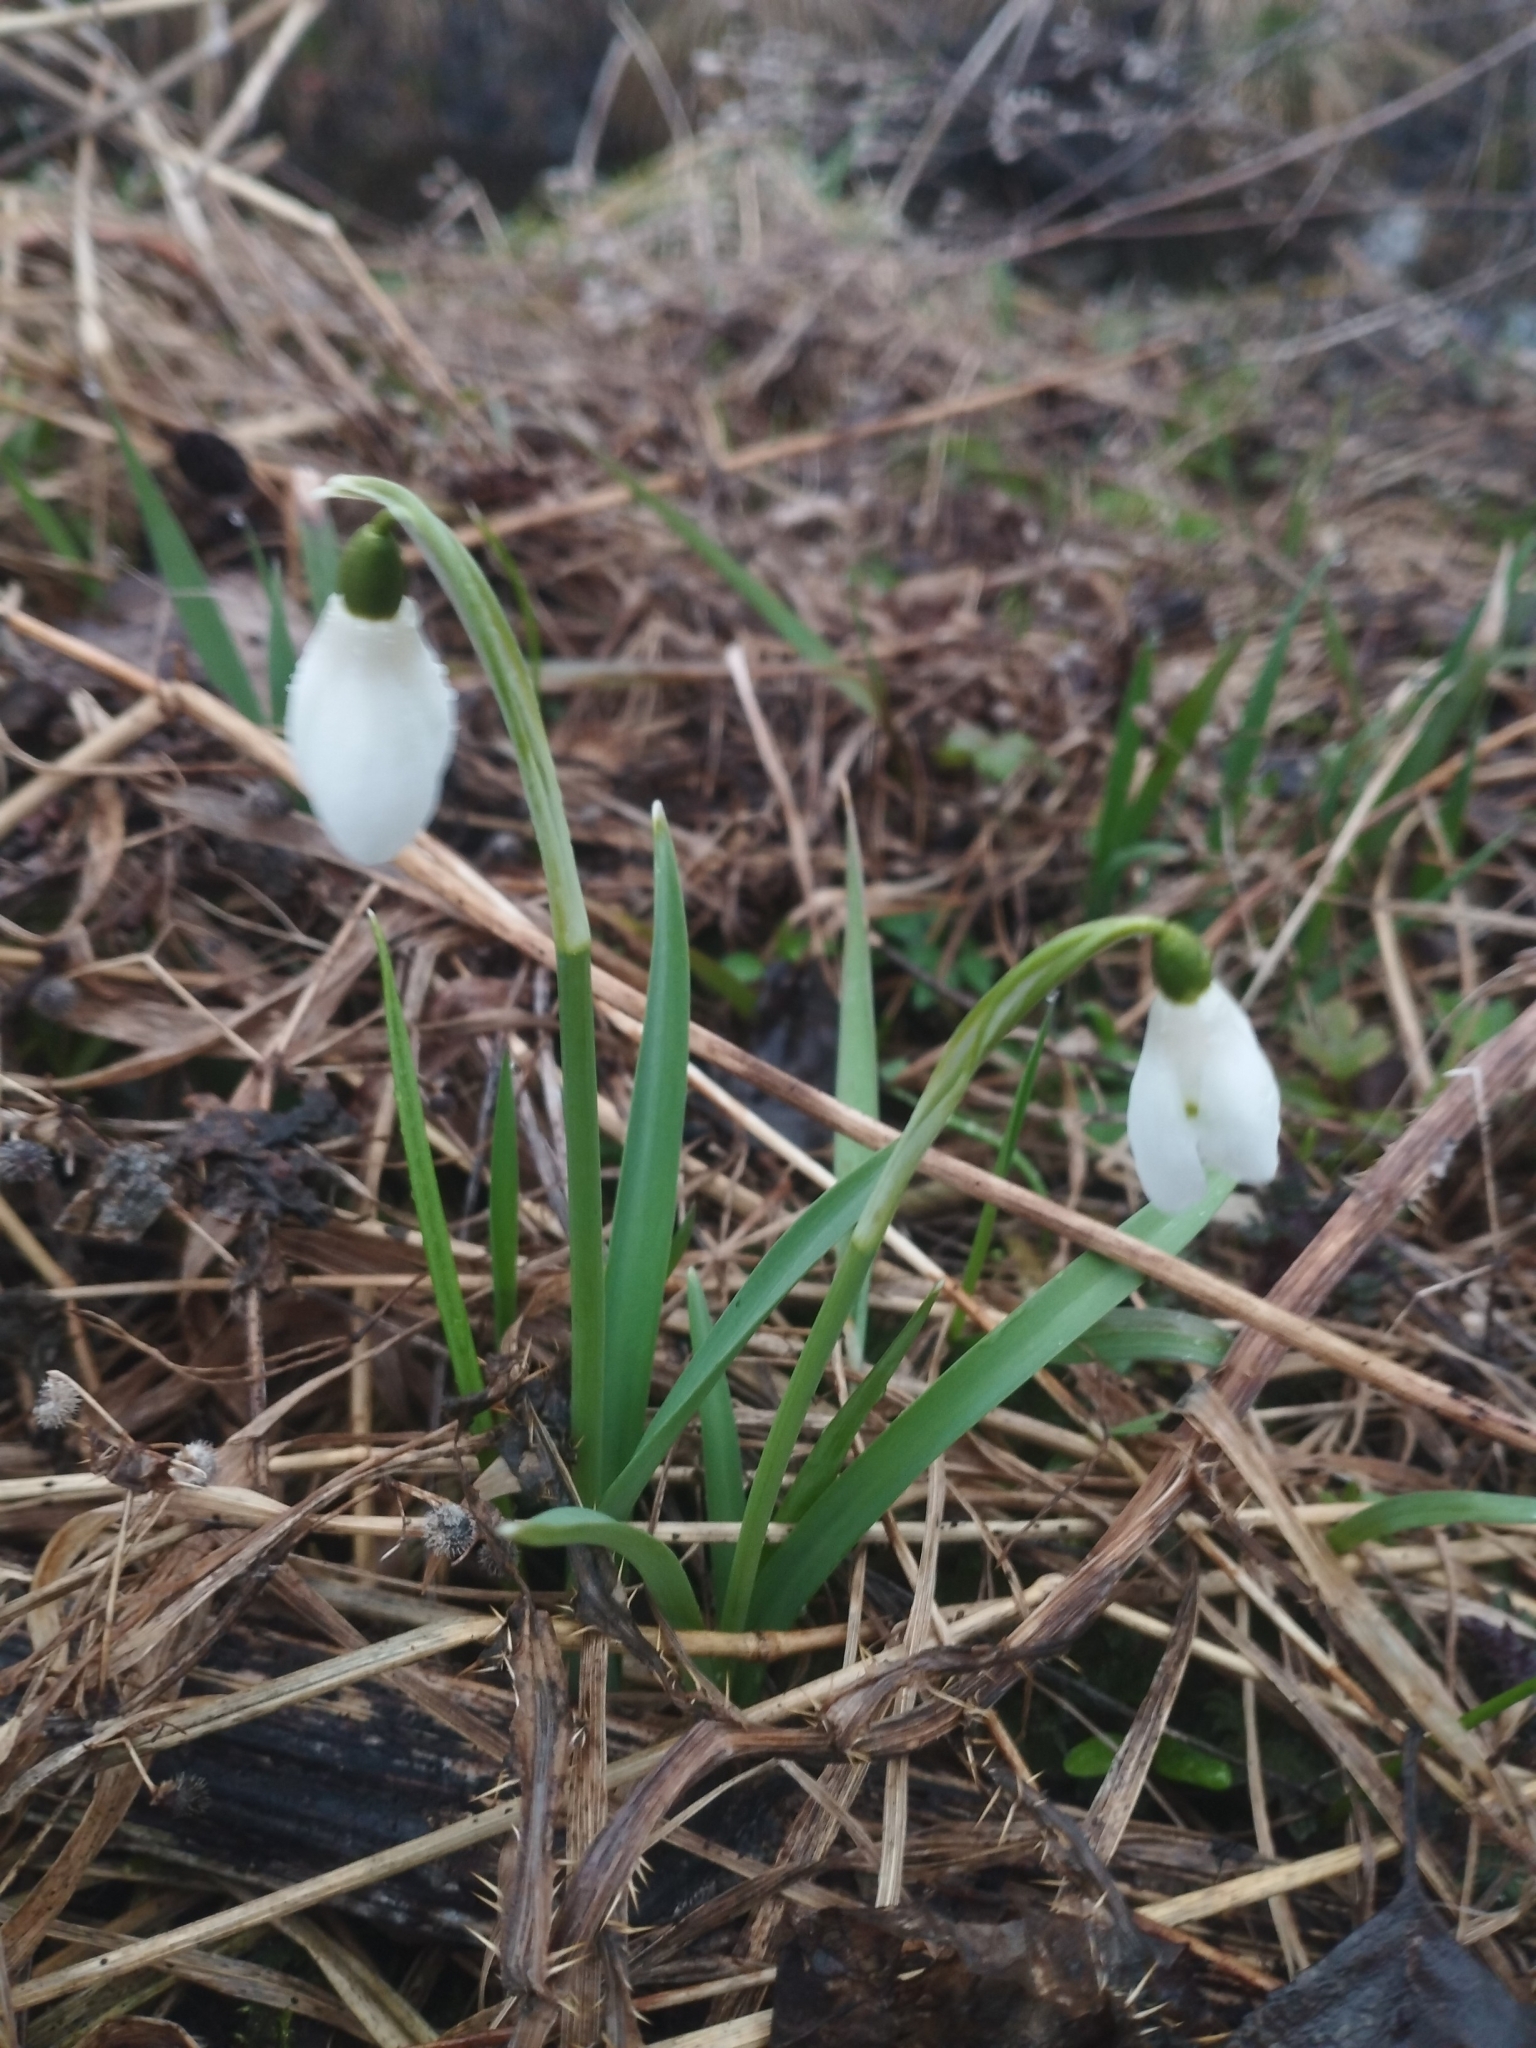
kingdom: Plantae
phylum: Tracheophyta
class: Liliopsida
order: Asparagales
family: Amaryllidaceae
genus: Galanthus
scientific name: Galanthus nivalis
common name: Snowdrop
